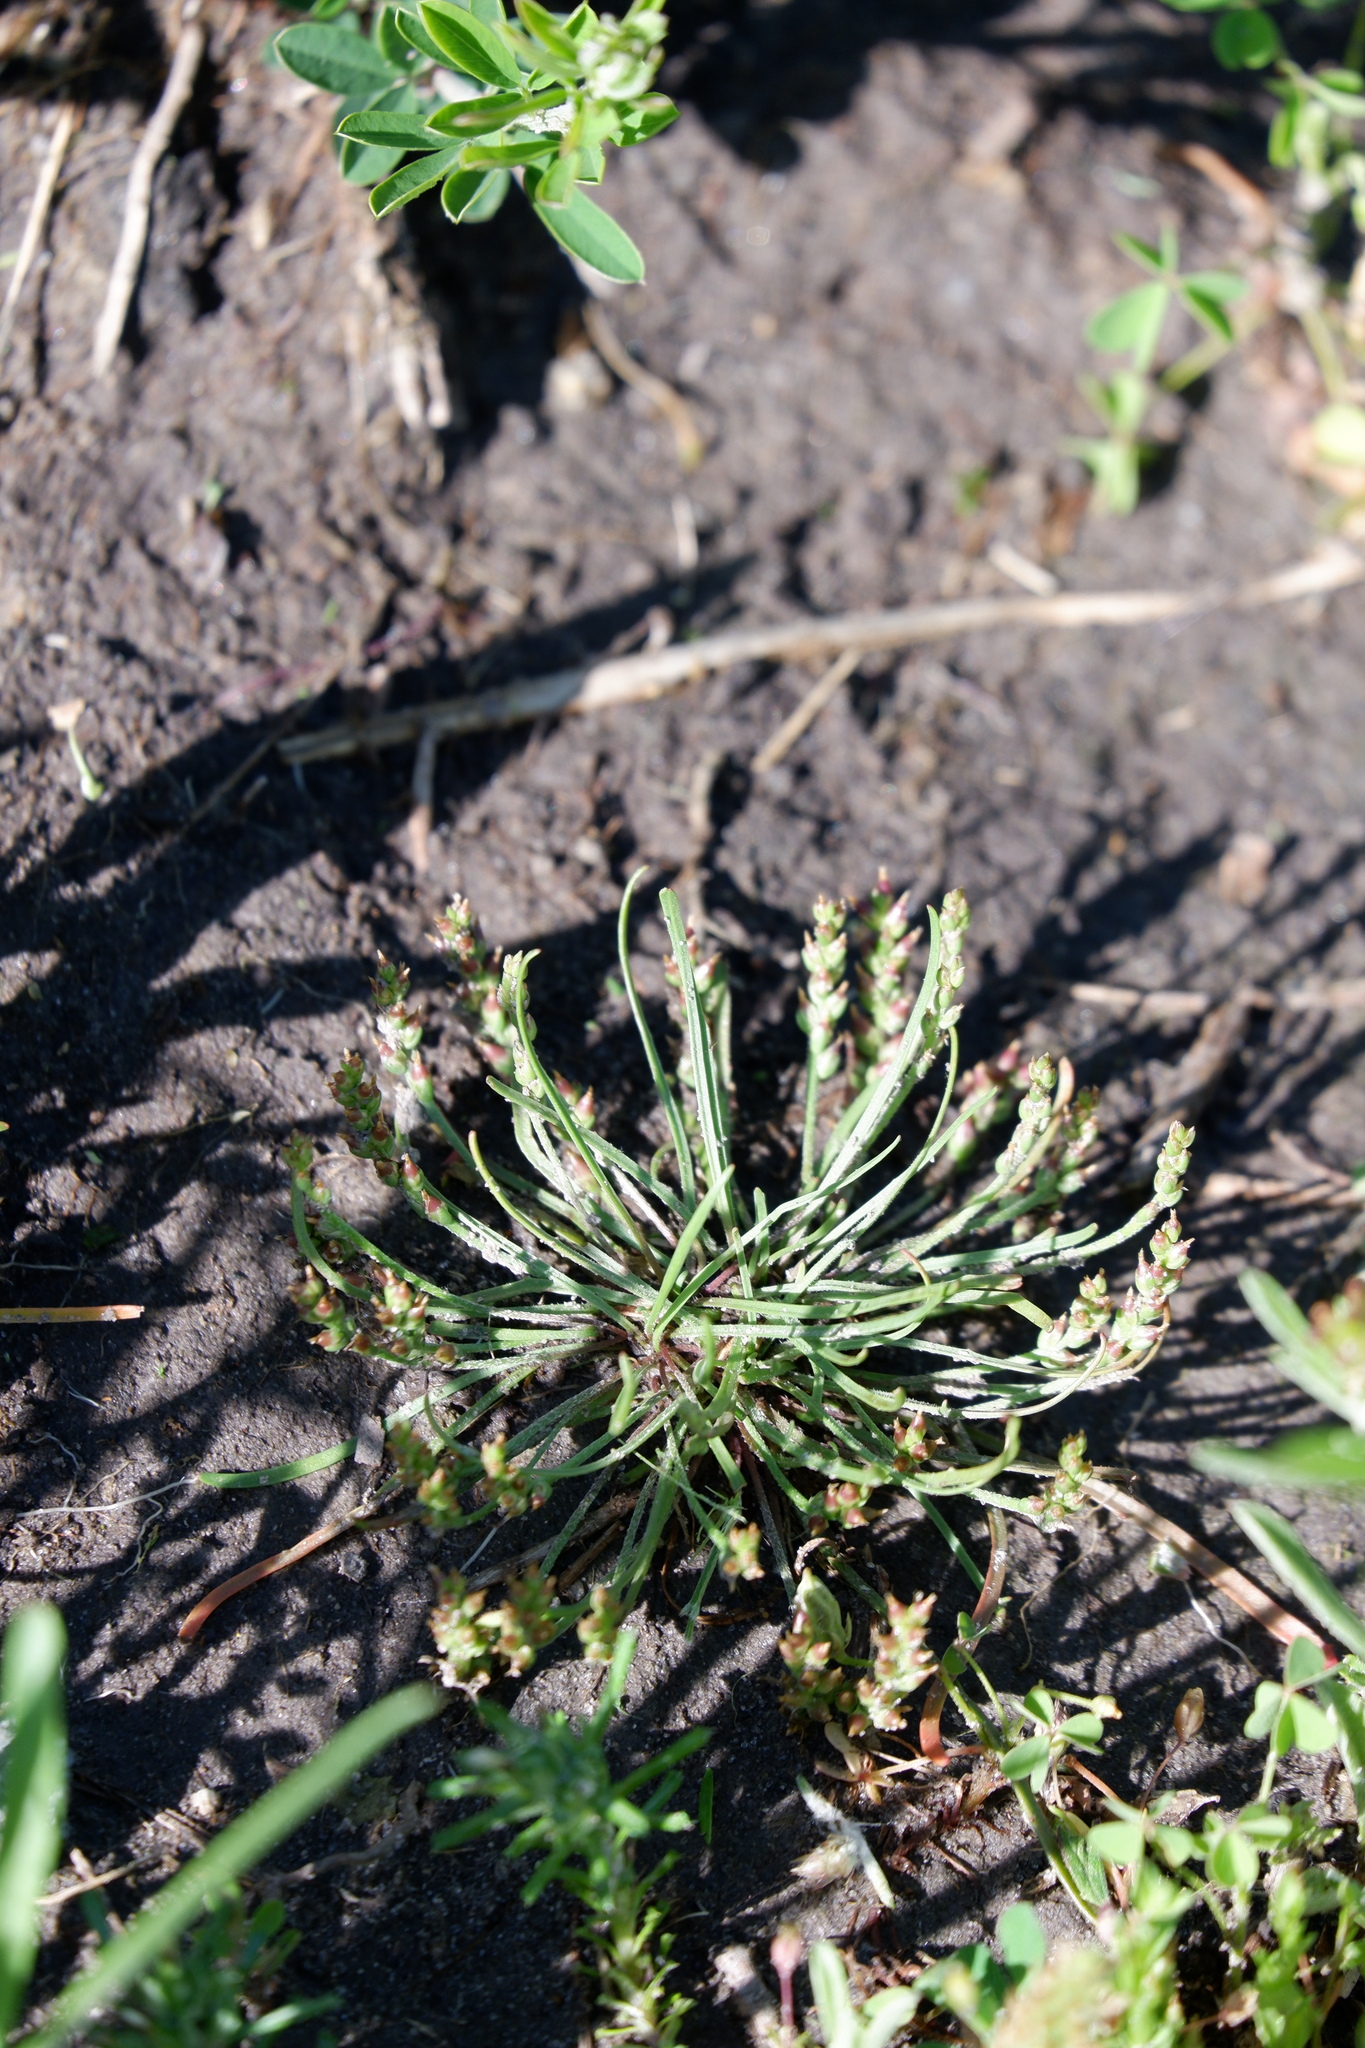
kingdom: Plantae
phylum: Tracheophyta
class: Magnoliopsida
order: Lamiales
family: Plantaginaceae
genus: Plantago
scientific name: Plantago heterophylla
